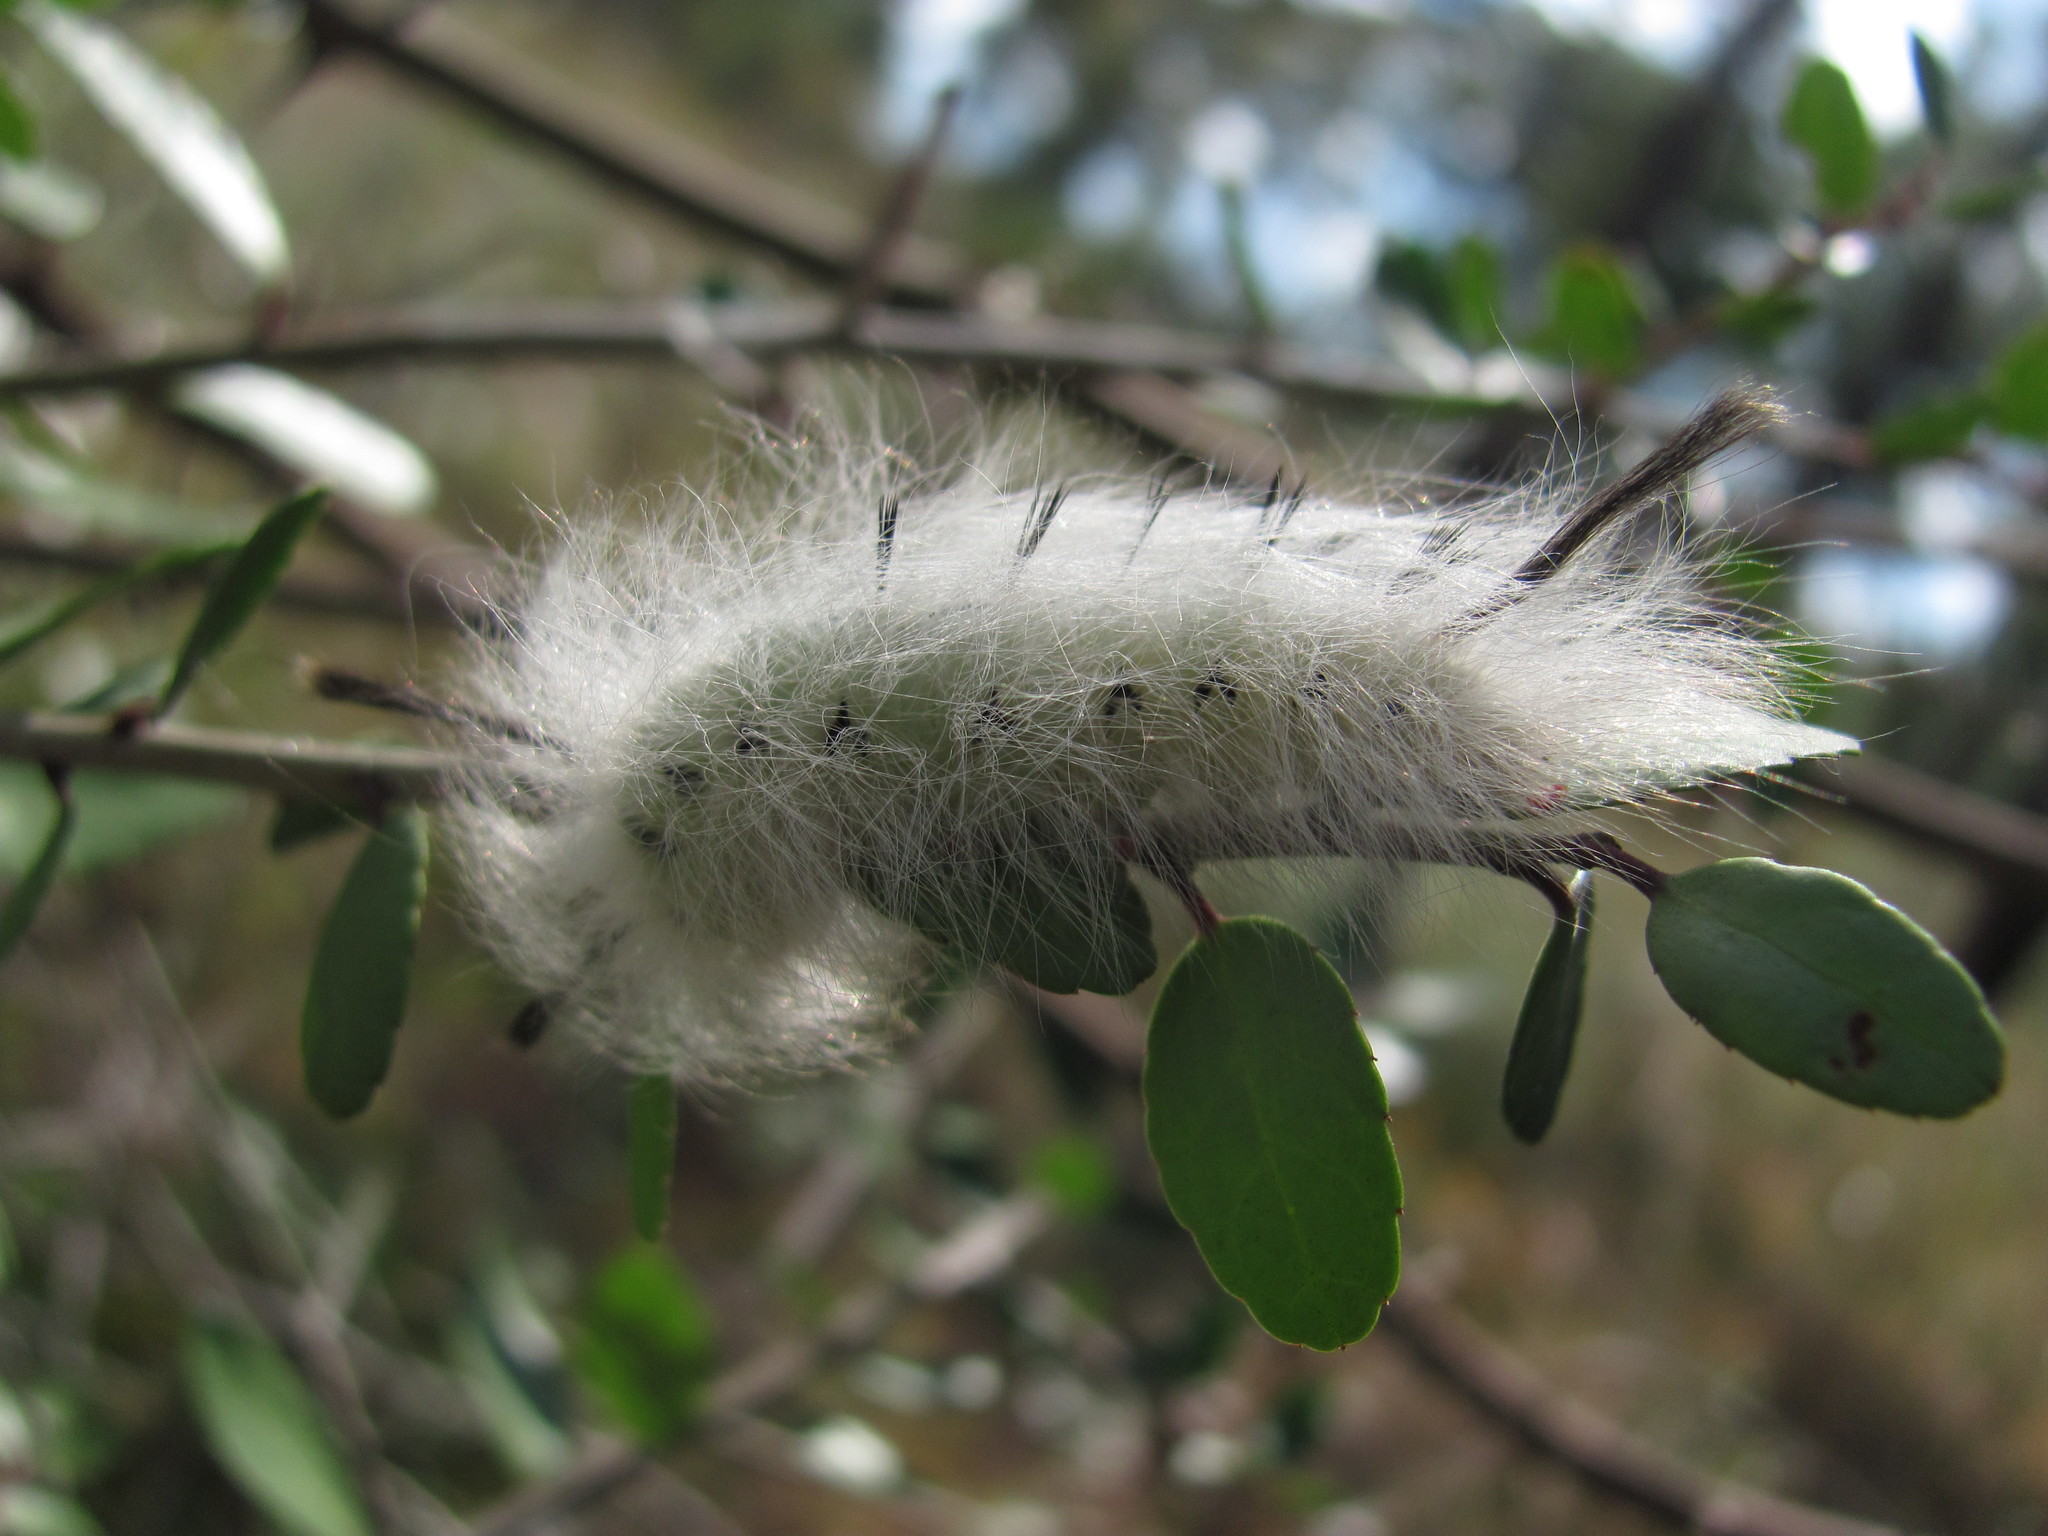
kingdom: Animalia
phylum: Arthropoda
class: Insecta
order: Lepidoptera
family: Apatelodidae
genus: Hygrochroa
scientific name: Hygrochroa Apatelodes torrefacta
